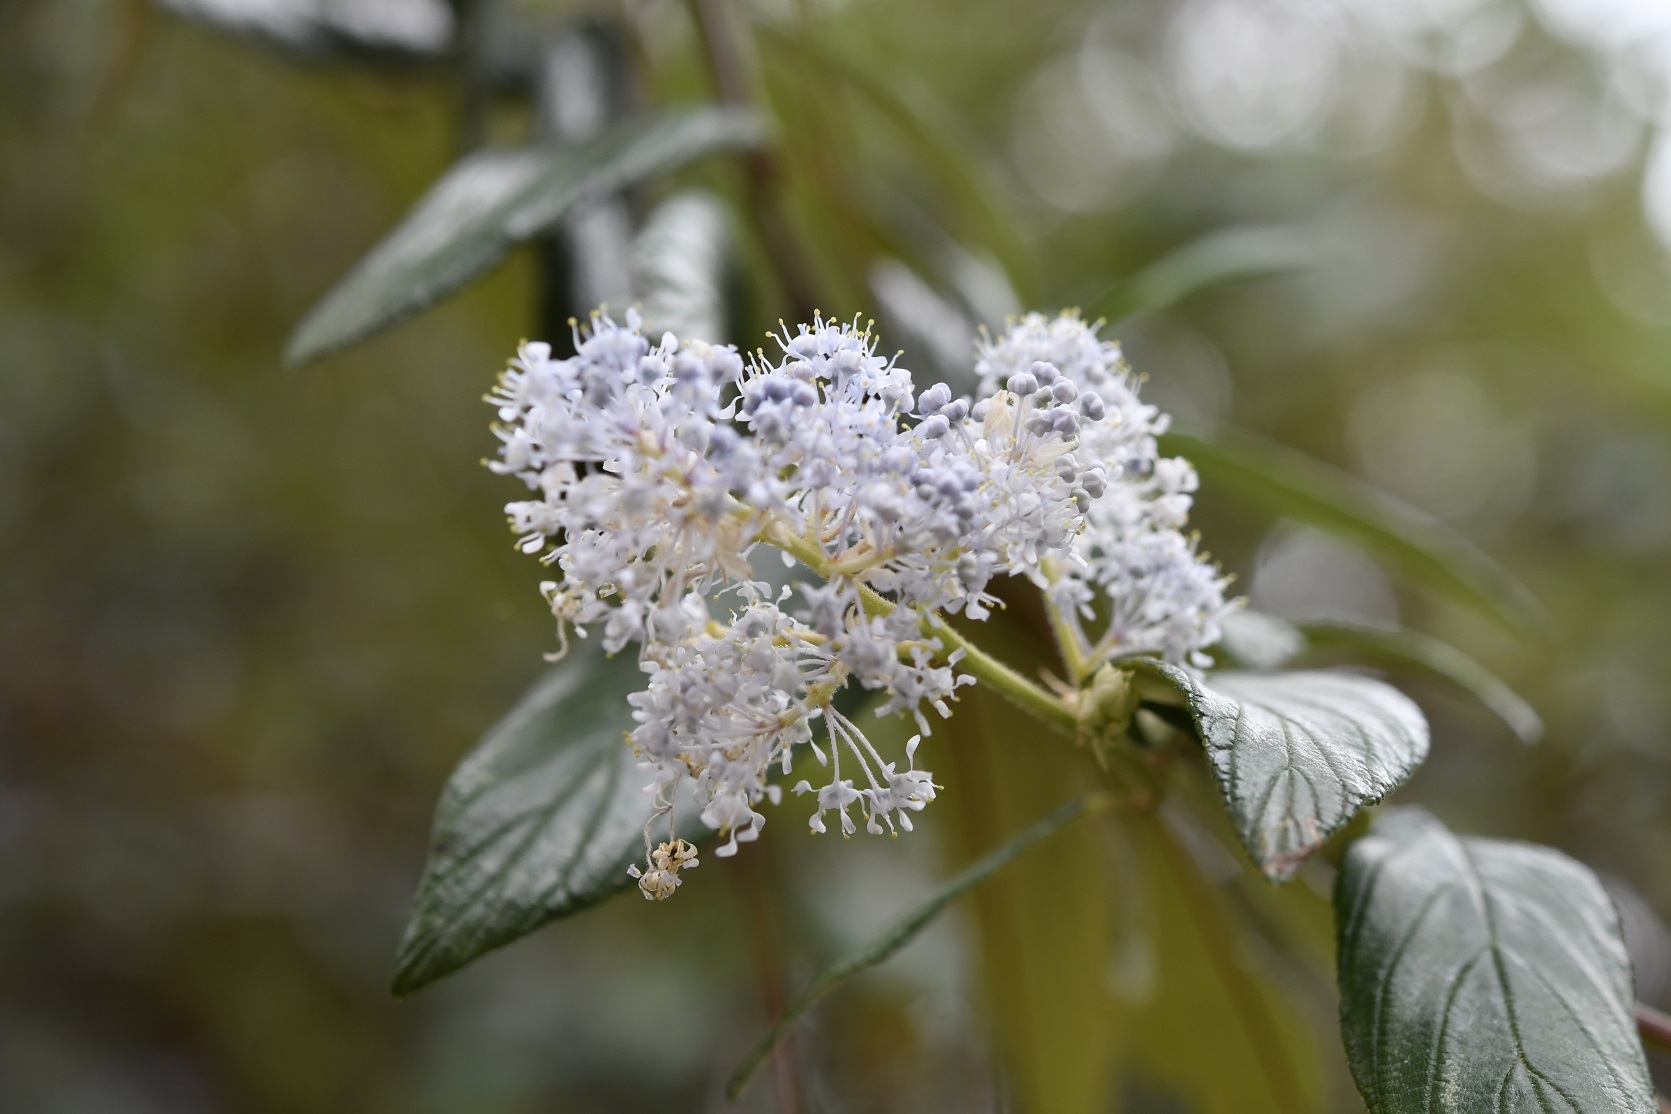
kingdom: Plantae
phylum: Tracheophyta
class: Magnoliopsida
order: Rosales
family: Rhamnaceae
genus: Ceanothus
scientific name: Ceanothus caeruleus
